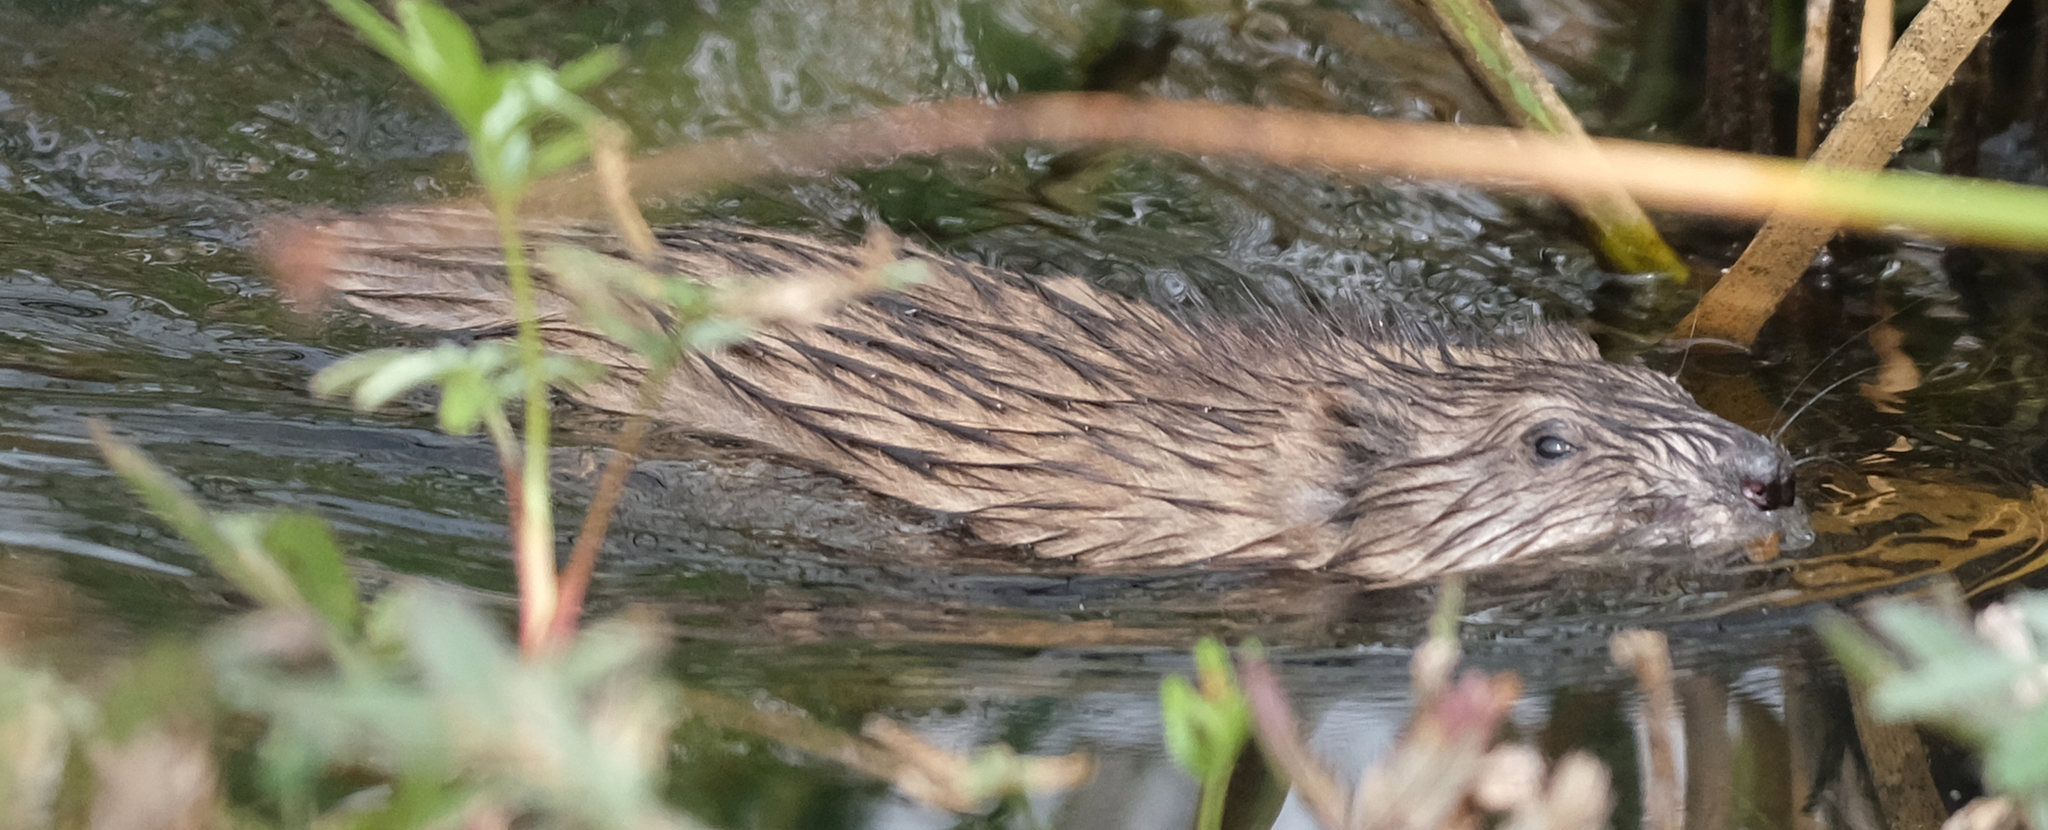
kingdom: Animalia
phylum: Chordata
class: Mammalia
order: Rodentia
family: Cricetidae
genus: Ondatra
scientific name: Ondatra zibethicus
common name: Muskrat
